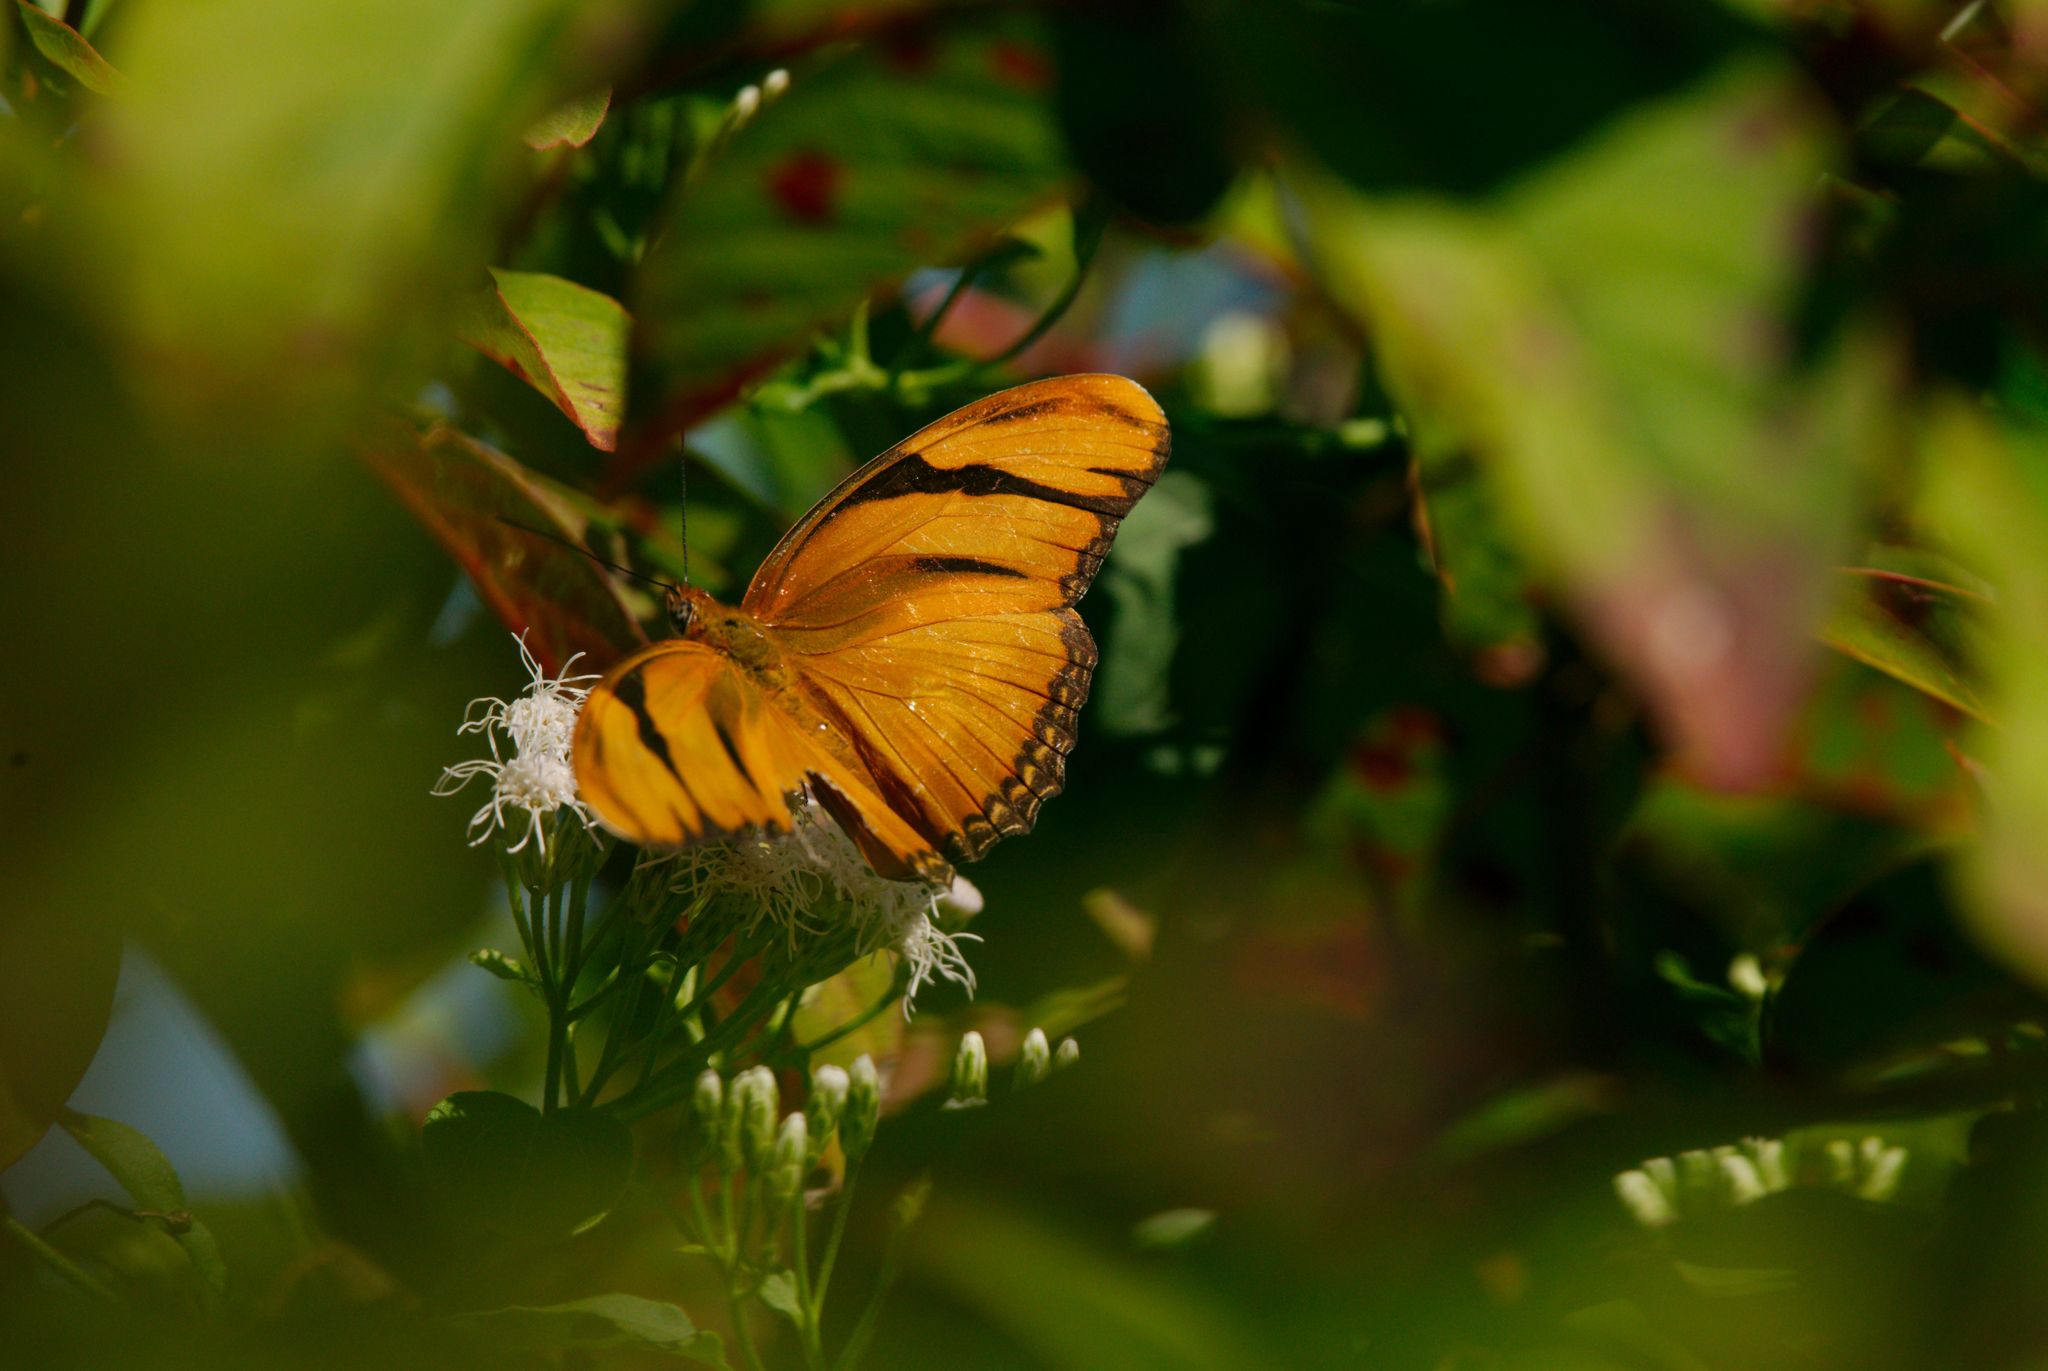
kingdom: Animalia
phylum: Arthropoda
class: Insecta
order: Lepidoptera
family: Nymphalidae
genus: Dryas
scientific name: Dryas iulia
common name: Flambeau
